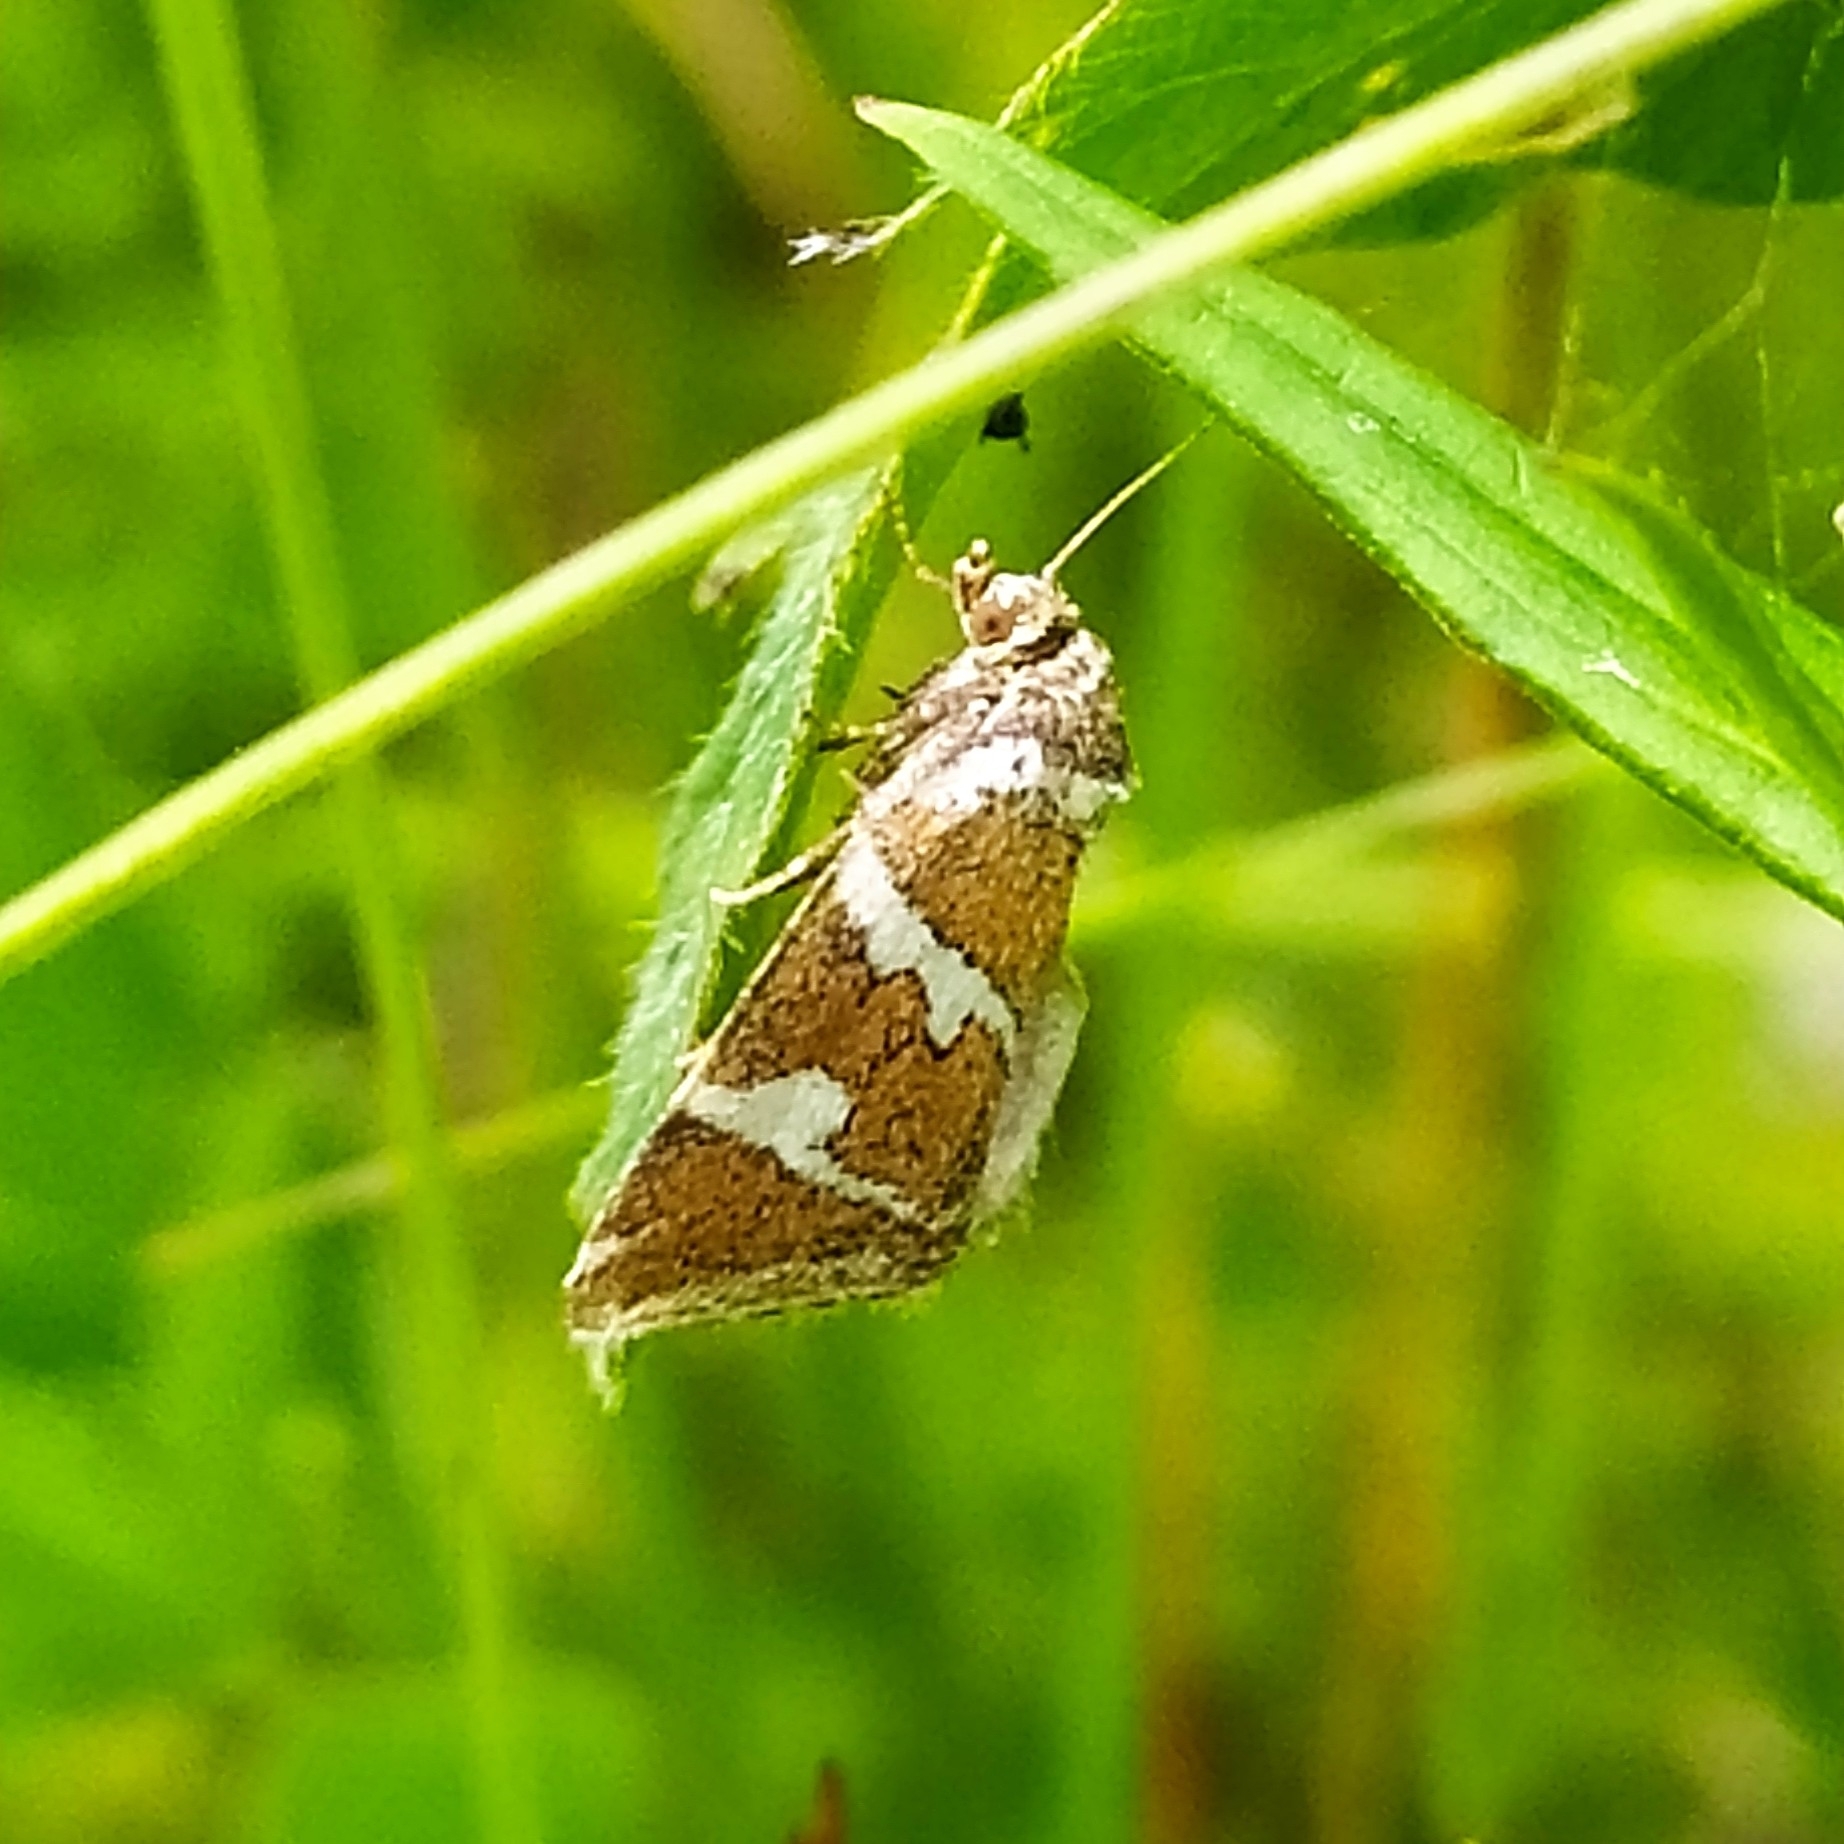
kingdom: Animalia
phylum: Arthropoda
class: Insecta
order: Lepidoptera
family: Noctuidae
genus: Deltote
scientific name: Deltote bankiana
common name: Silver barred
